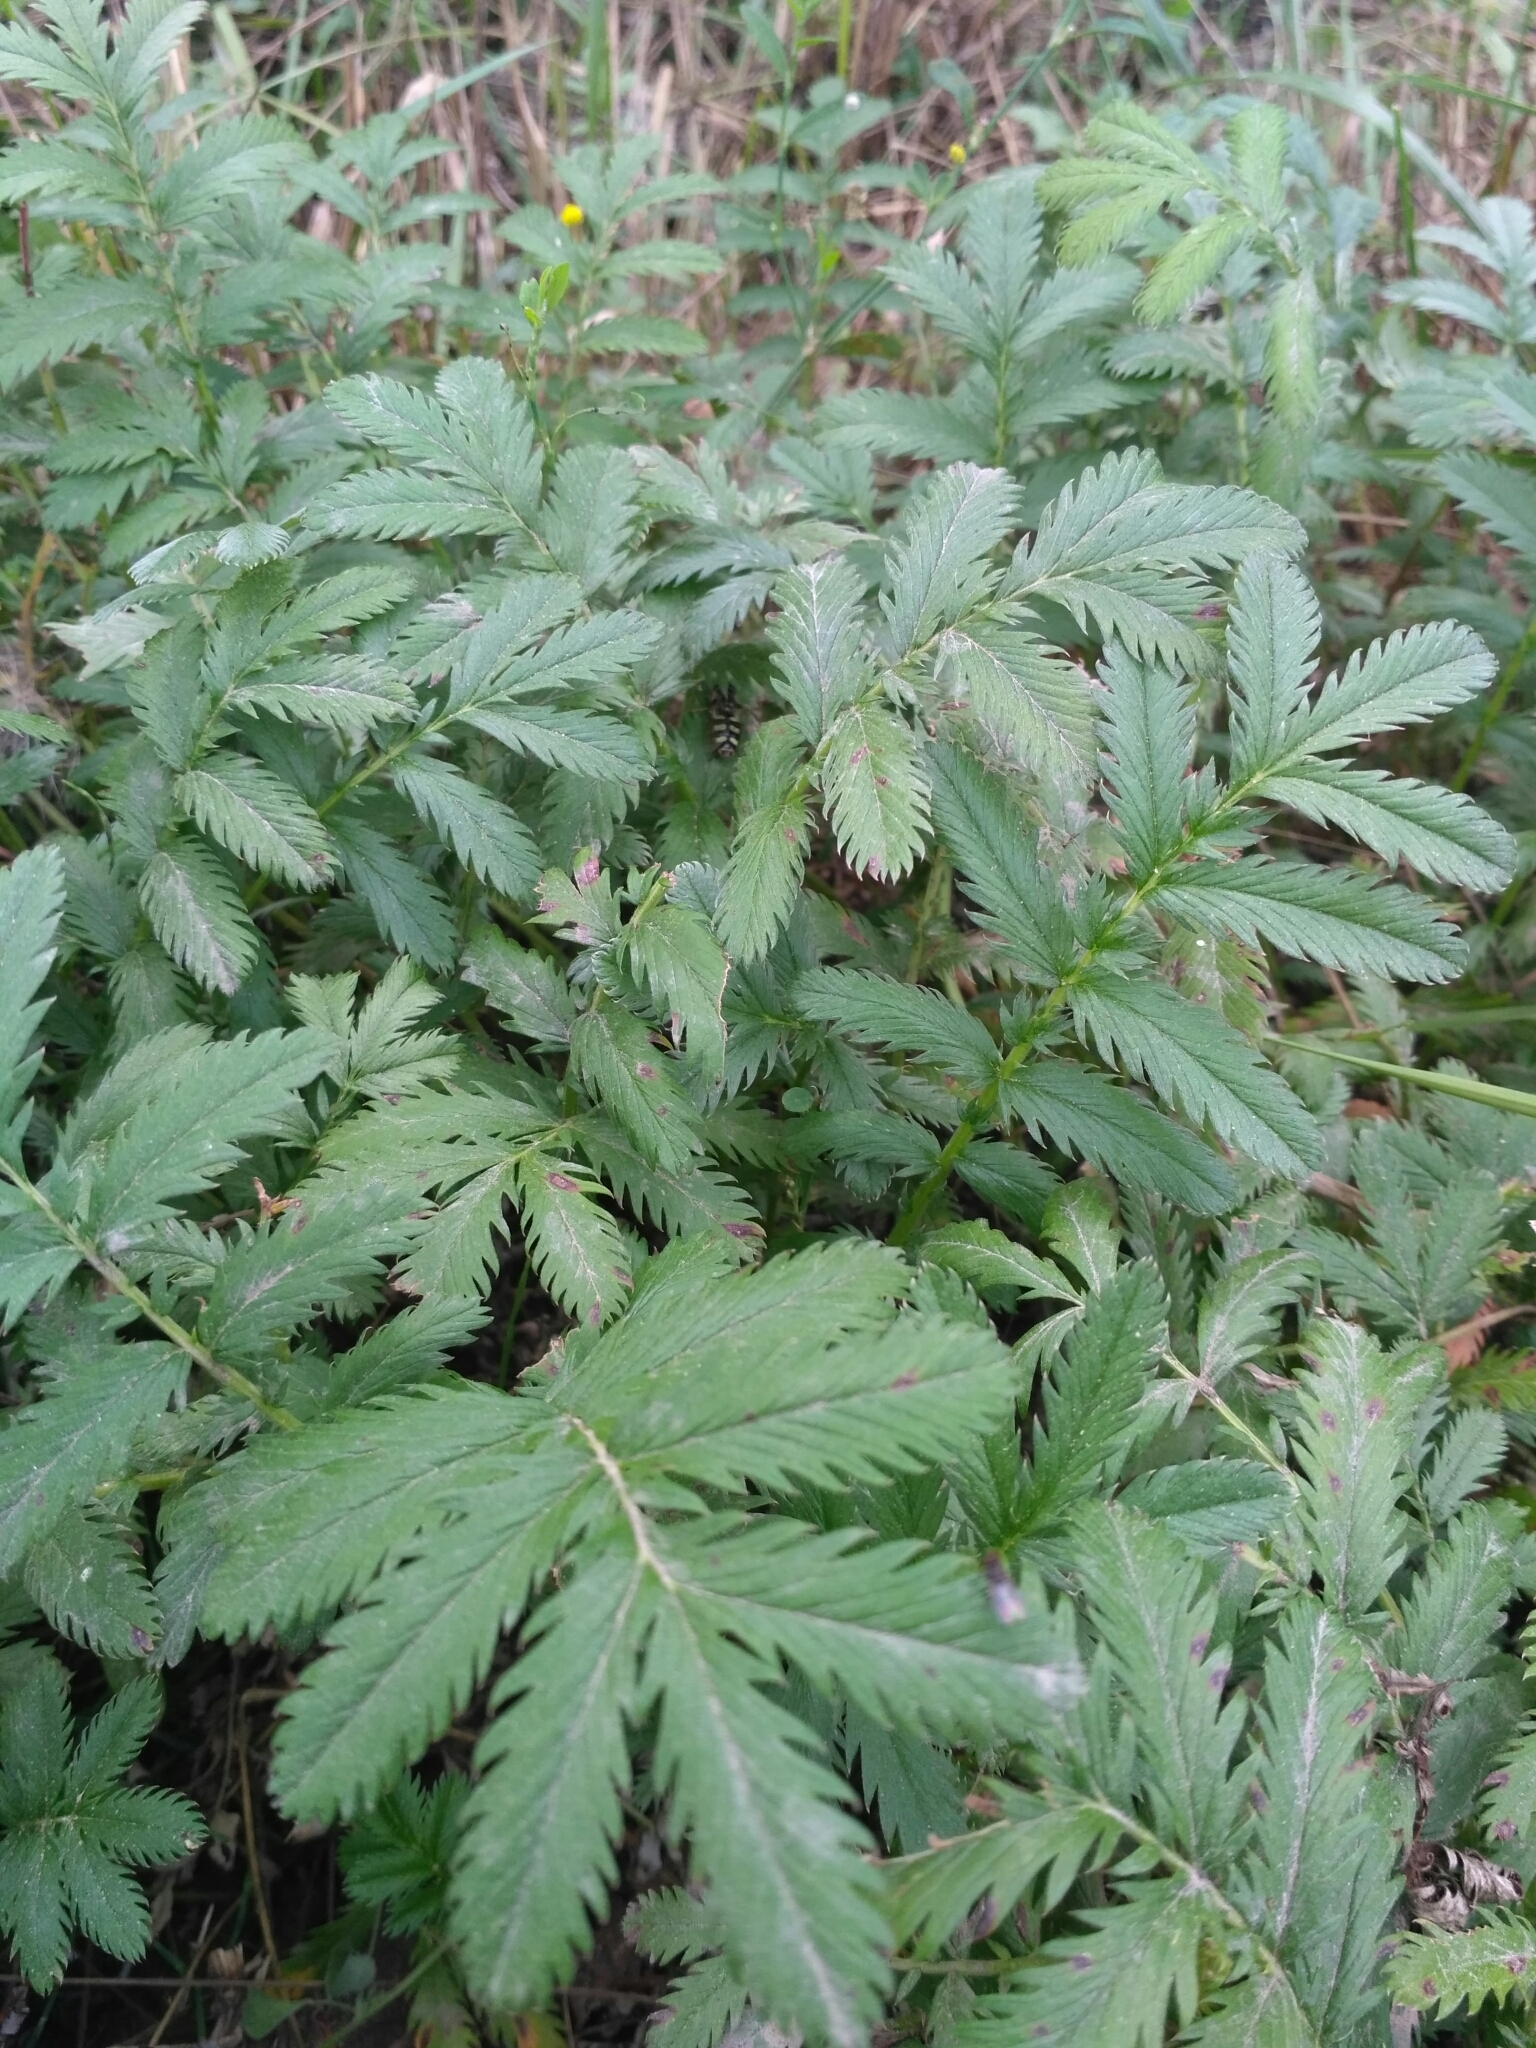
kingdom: Plantae
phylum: Tracheophyta
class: Magnoliopsida
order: Rosales
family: Rosaceae
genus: Argentina
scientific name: Argentina anserina
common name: Common silverweed
